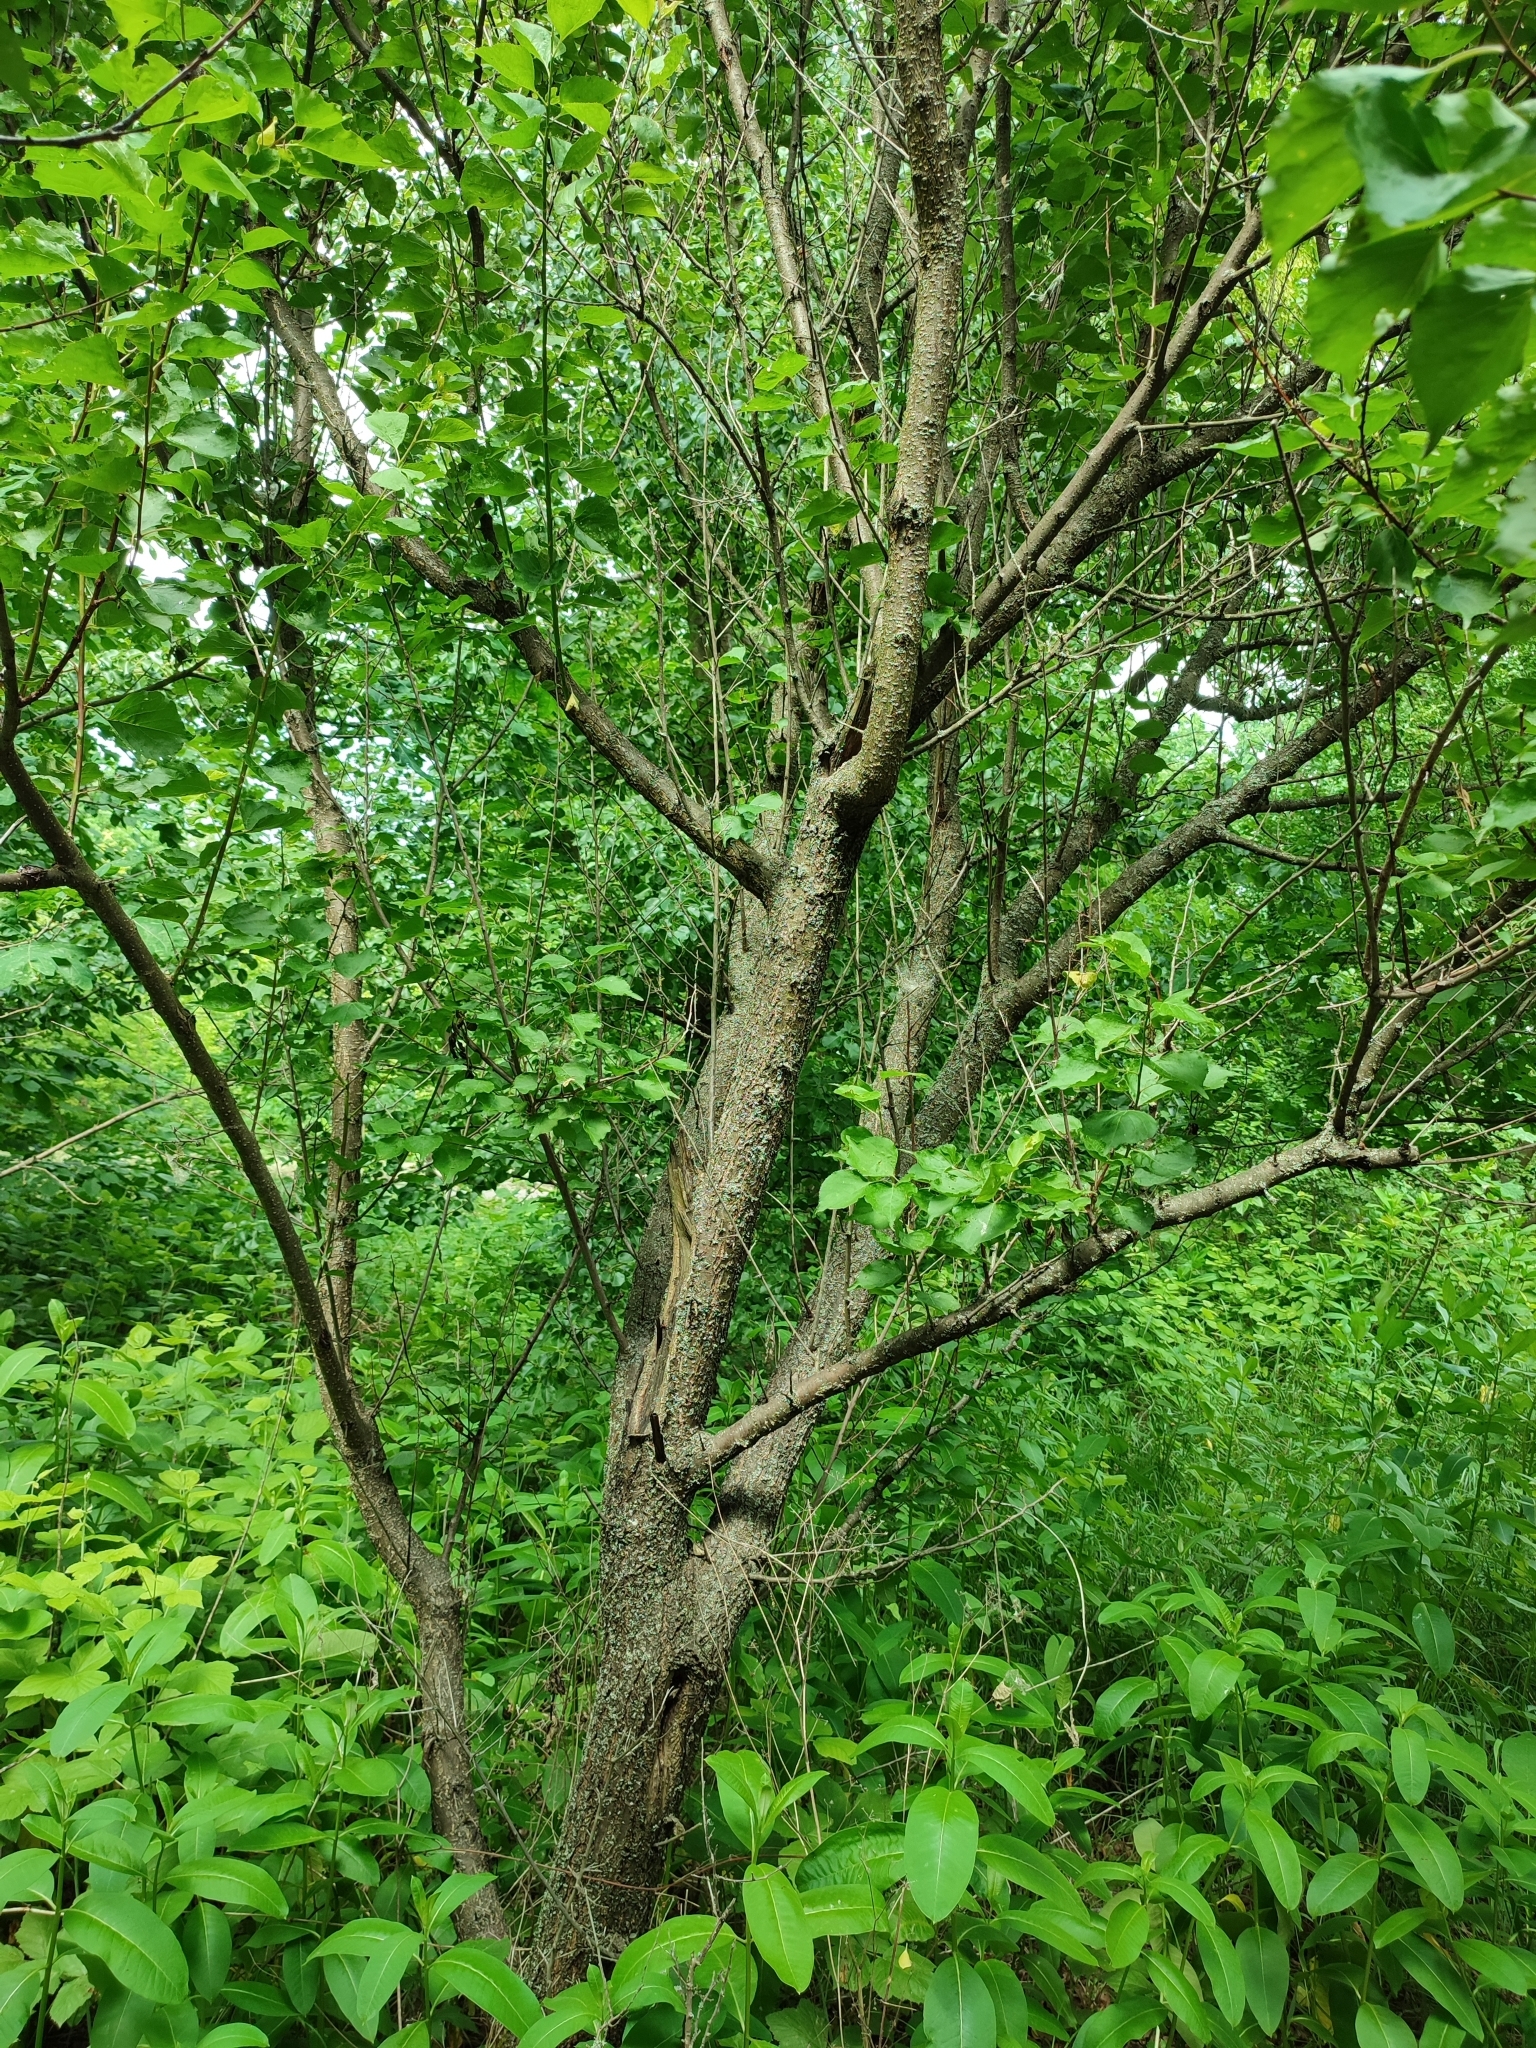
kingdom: Plantae
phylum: Tracheophyta
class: Magnoliopsida
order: Rosales
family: Rosaceae
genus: Prunus
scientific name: Prunus armeniaca
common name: Apricot
